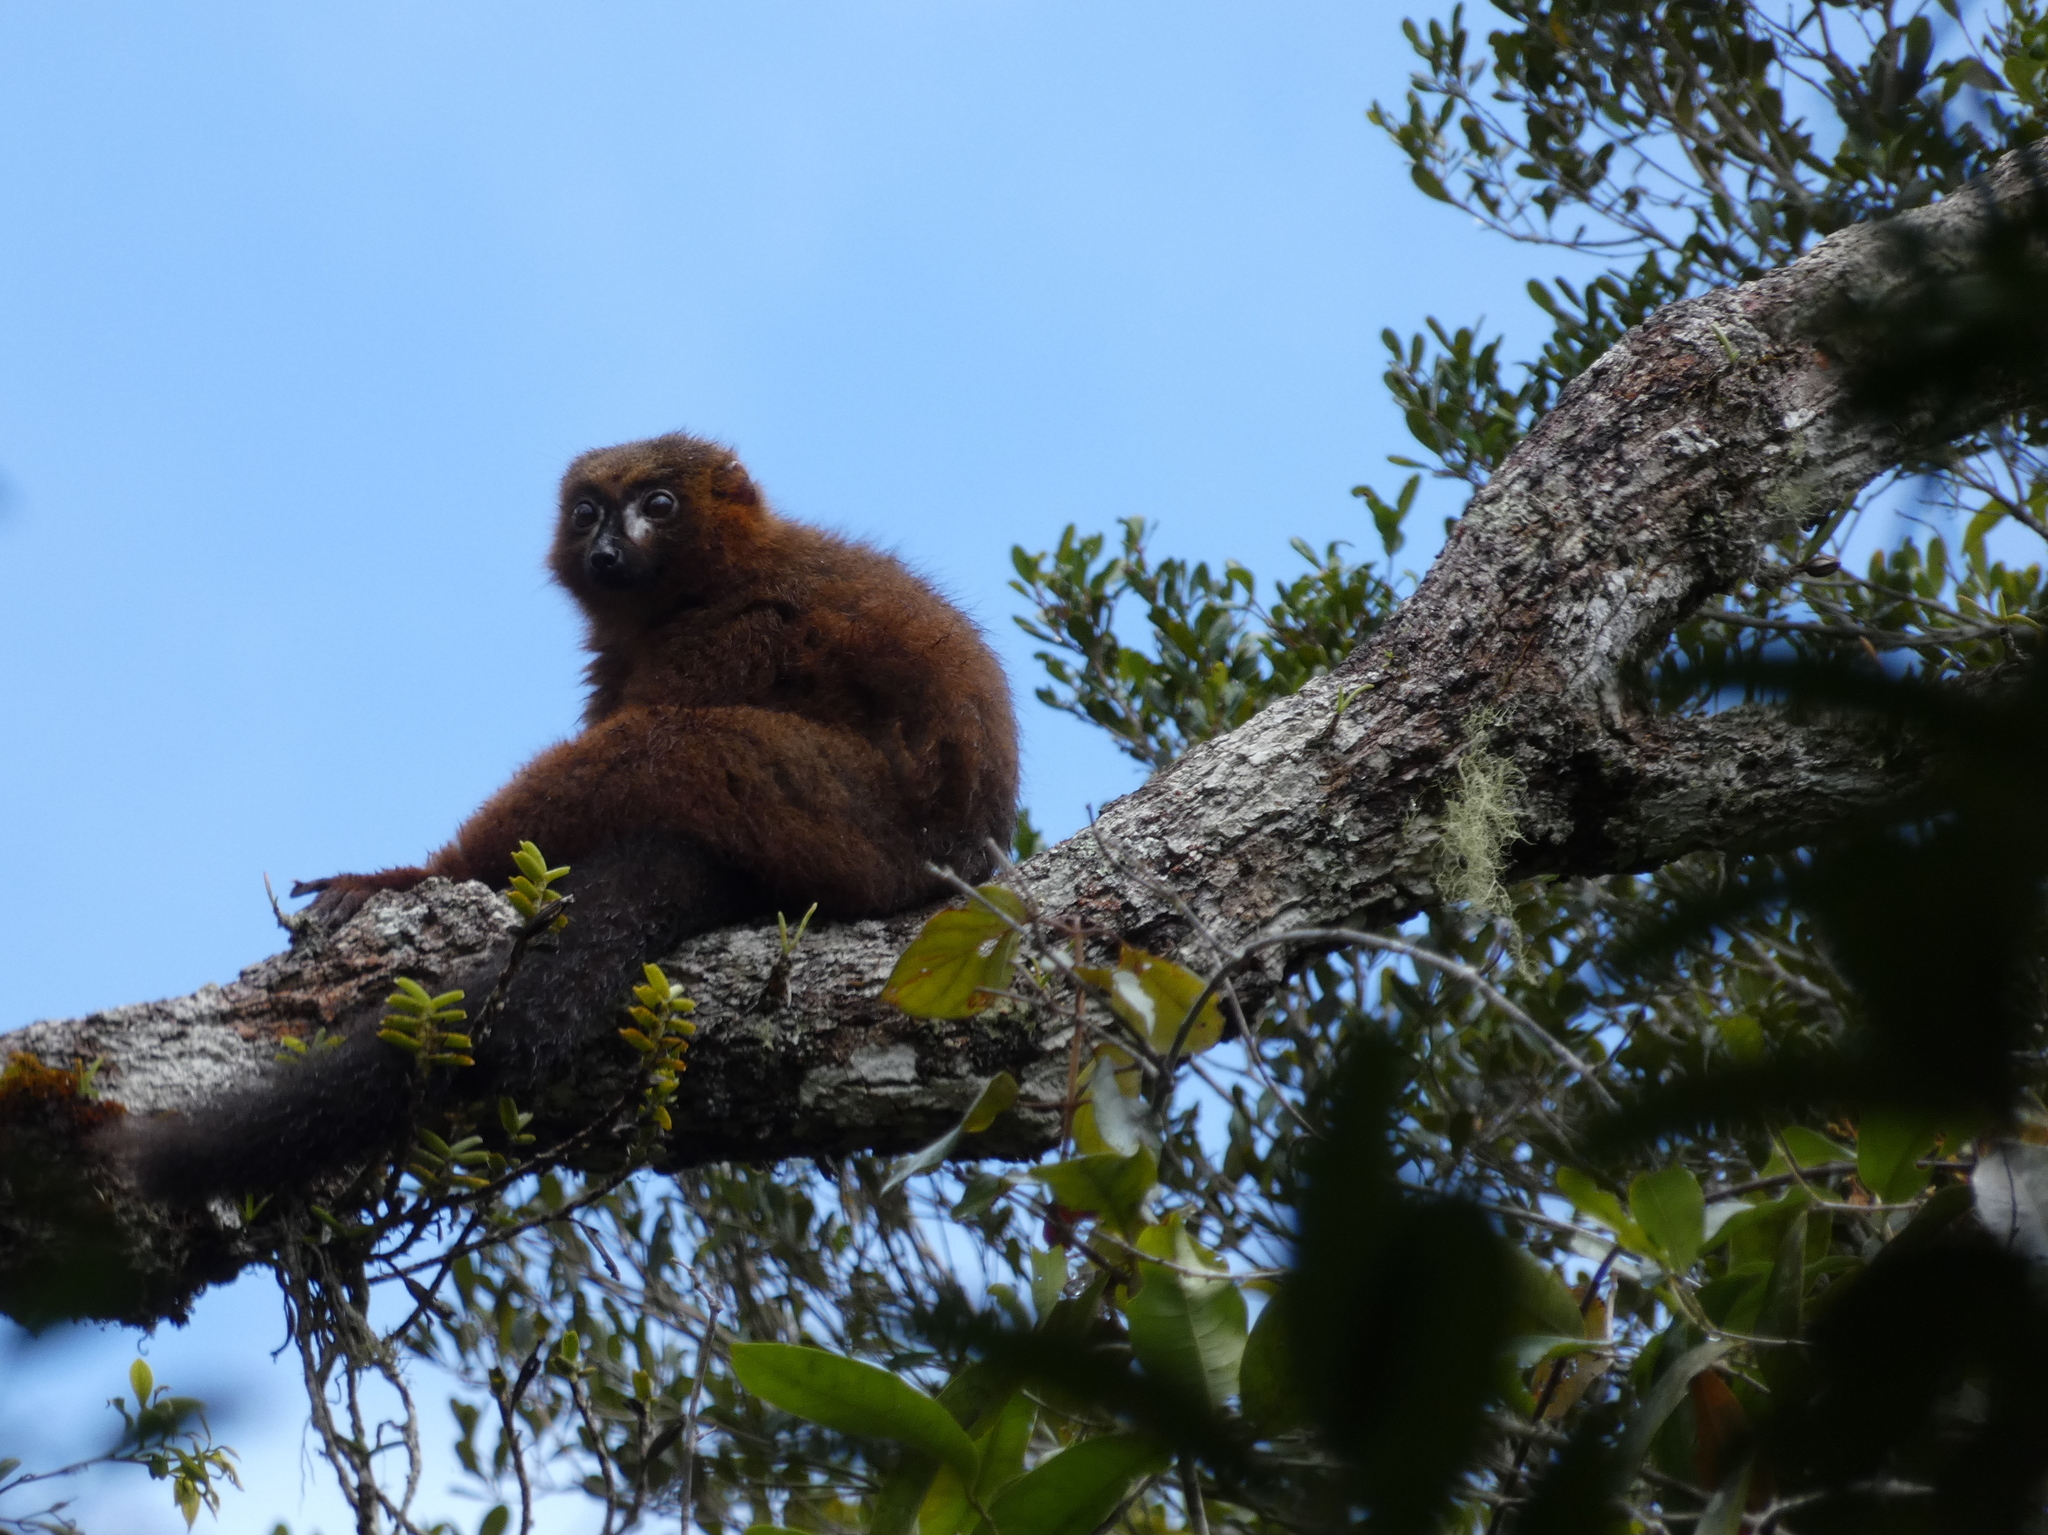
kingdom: Animalia
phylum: Chordata
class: Mammalia
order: Primates
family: Lemuridae
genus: Eulemur
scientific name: Eulemur rubriventer
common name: Red-bellied lemur
